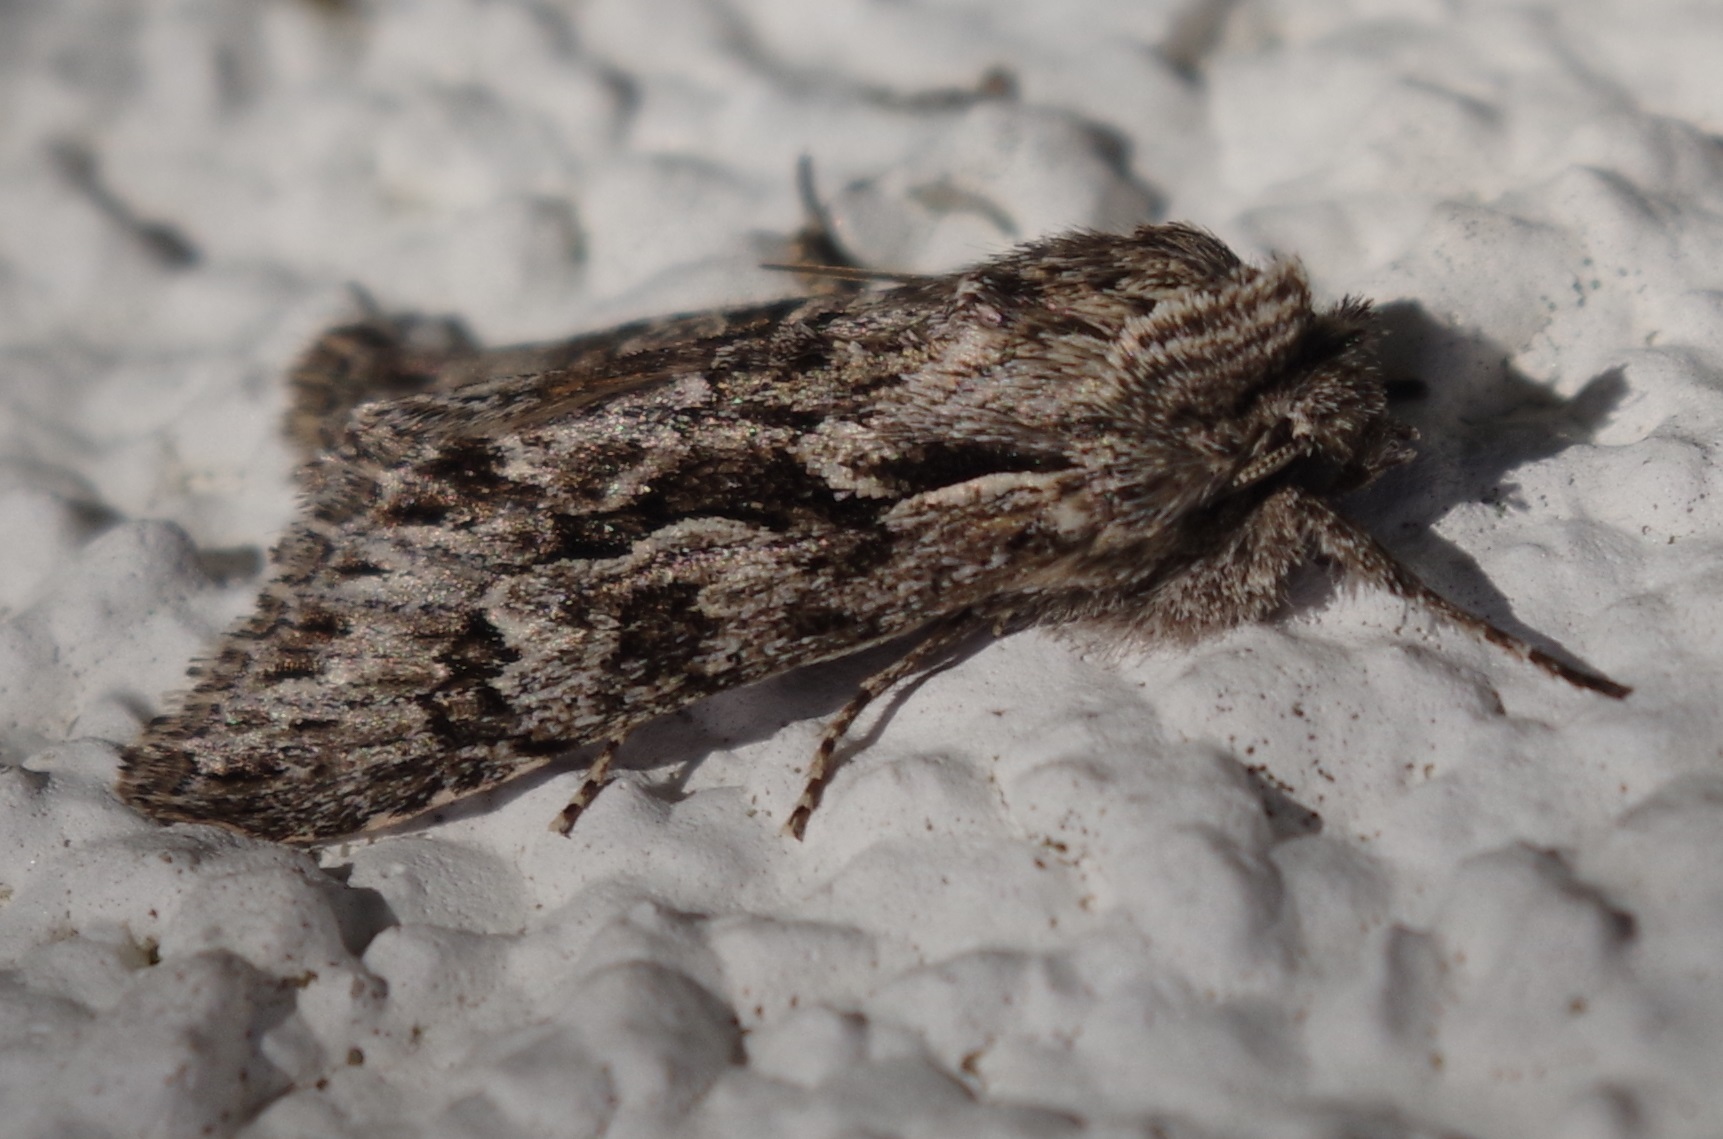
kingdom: Animalia
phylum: Arthropoda
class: Insecta
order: Lepidoptera
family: Noctuidae
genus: Xylocampa
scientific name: Xylocampa areola
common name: Early grey
